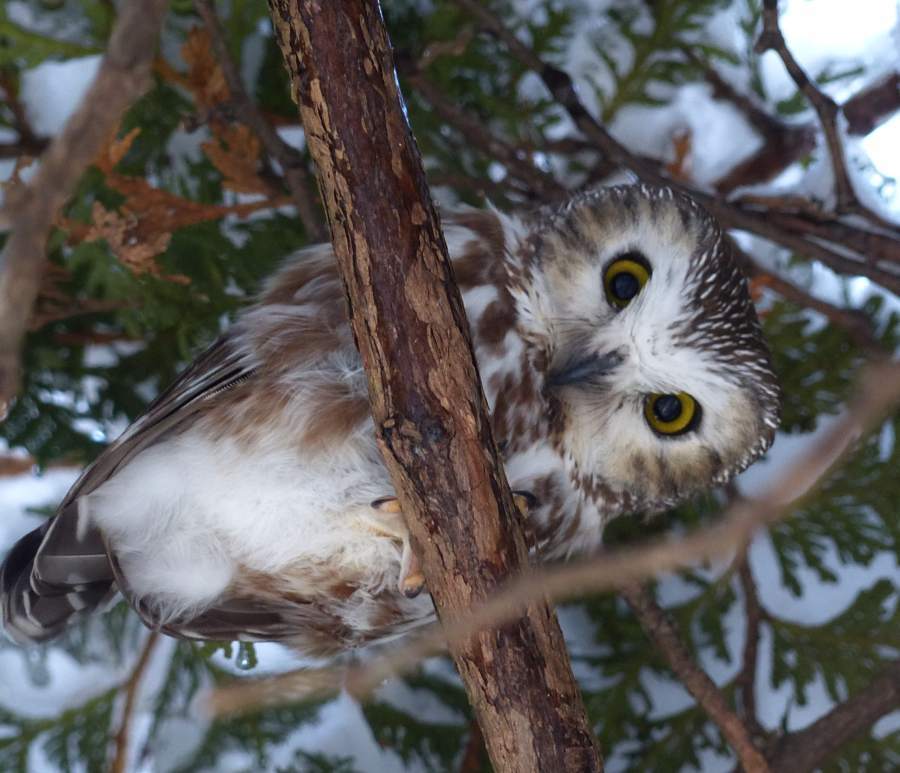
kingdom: Animalia
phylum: Chordata
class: Aves
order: Strigiformes
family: Strigidae
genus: Aegolius
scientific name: Aegolius acadicus
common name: Northern saw-whet owl
